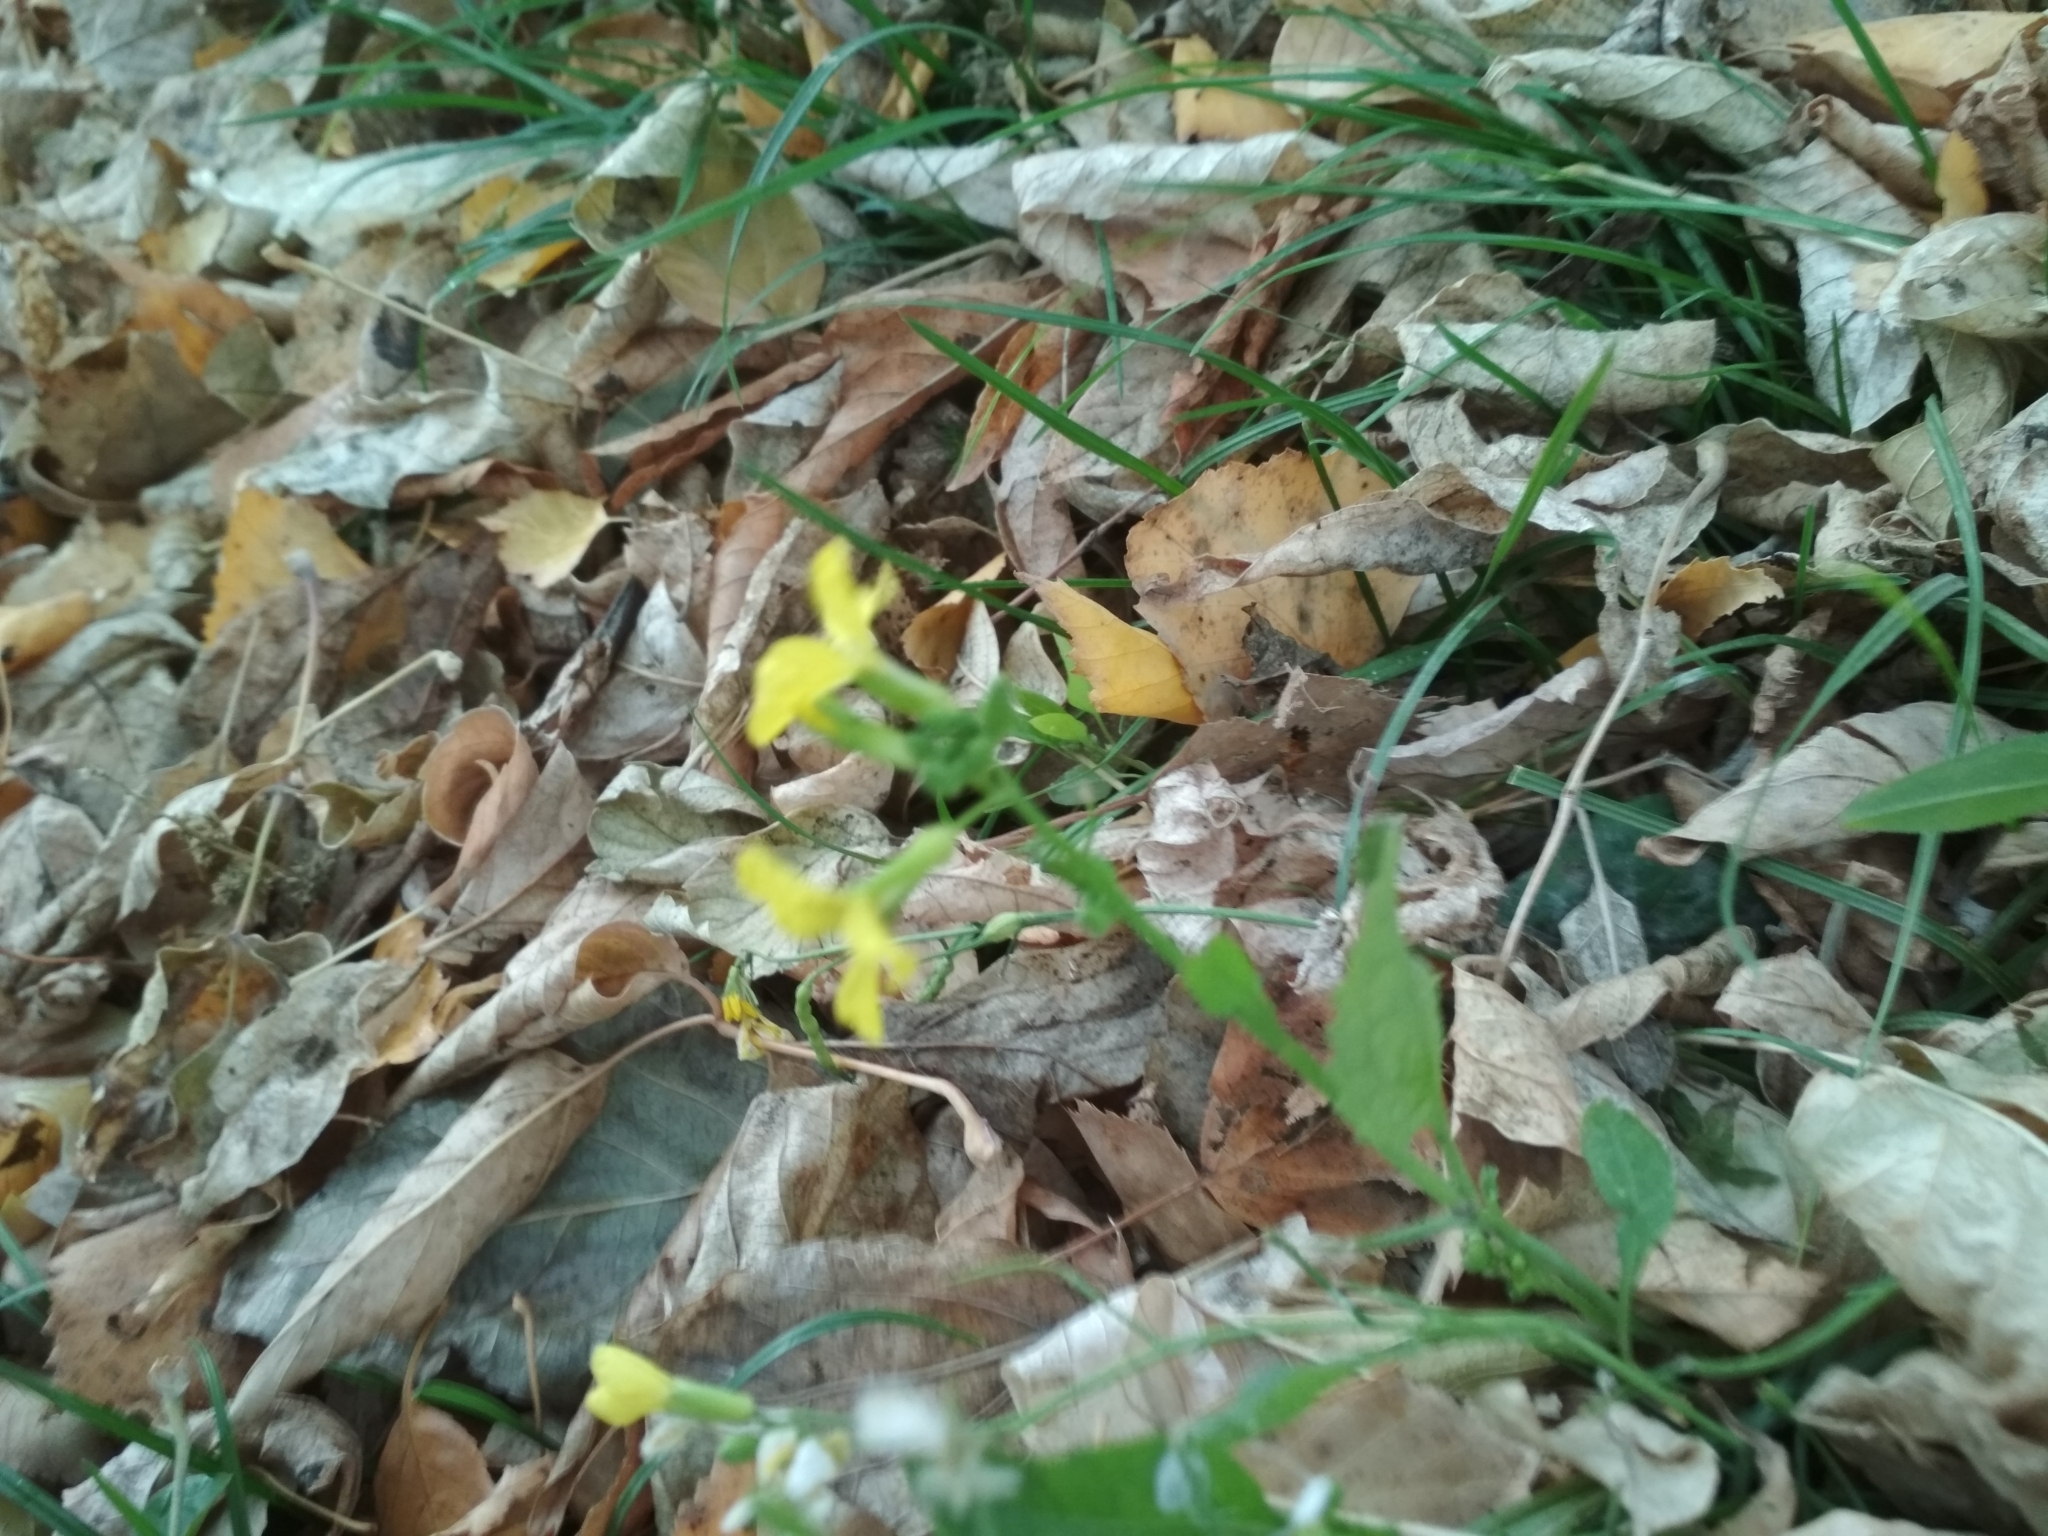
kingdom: Plantae
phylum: Tracheophyta
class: Magnoliopsida
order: Brassicales
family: Brassicaceae
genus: Raphanus
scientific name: Raphanus raphanistrum
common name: Wild radish
